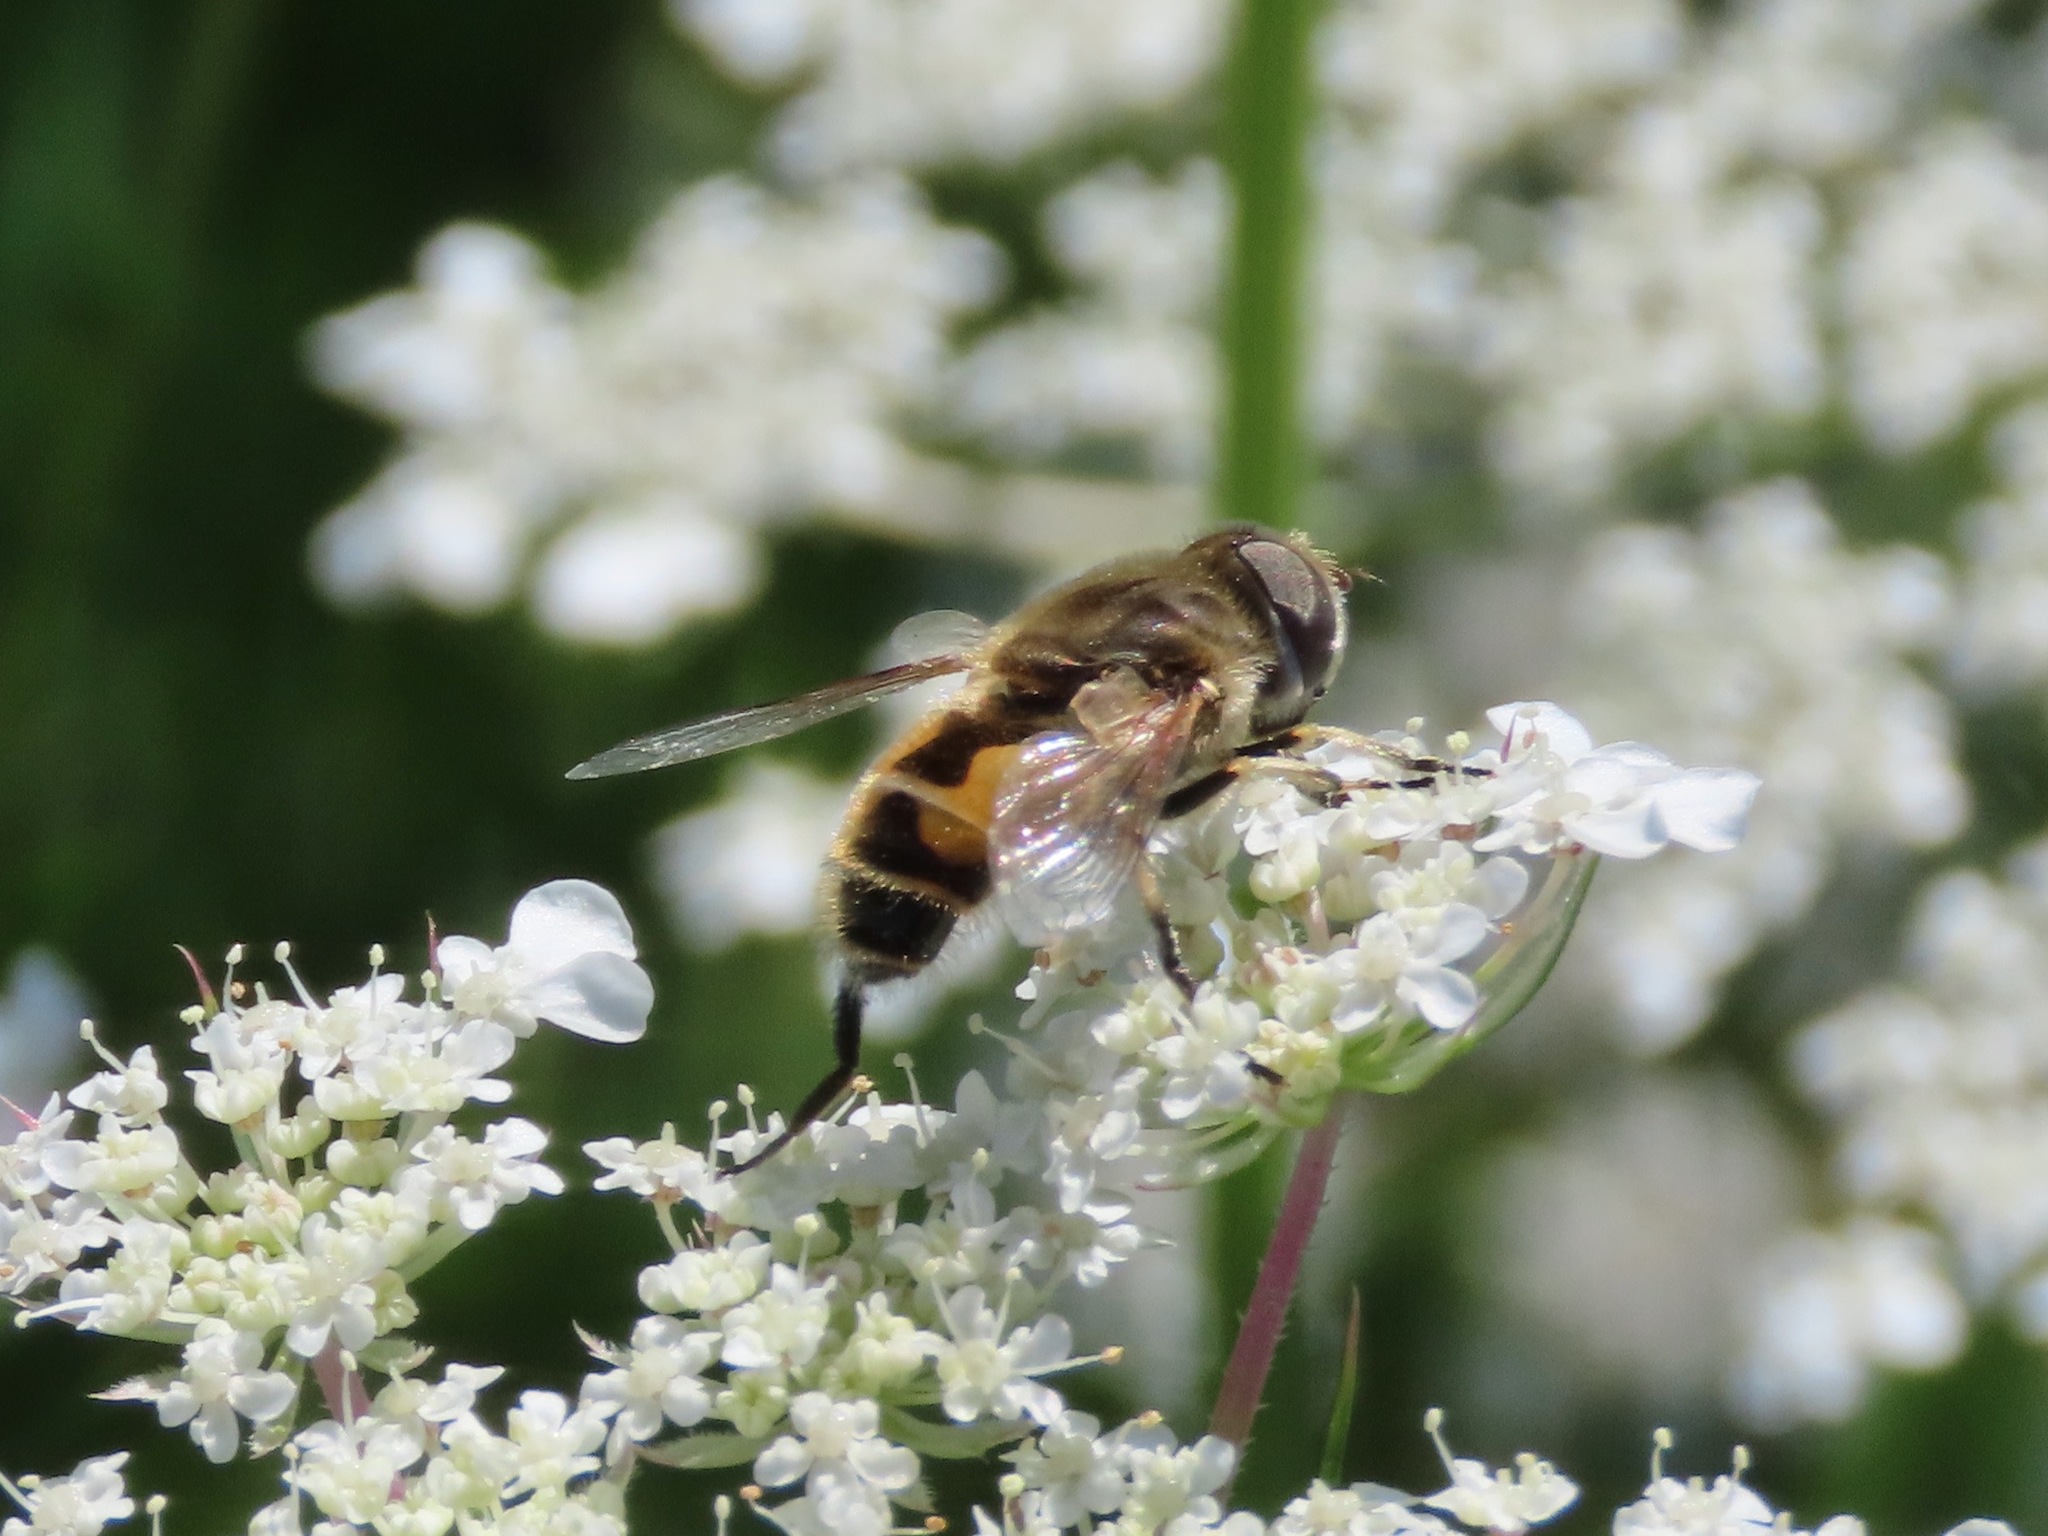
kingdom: Animalia
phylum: Arthropoda
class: Insecta
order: Diptera
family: Syrphidae
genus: Eristalis
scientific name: Eristalis arbustorum
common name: Hover fly
